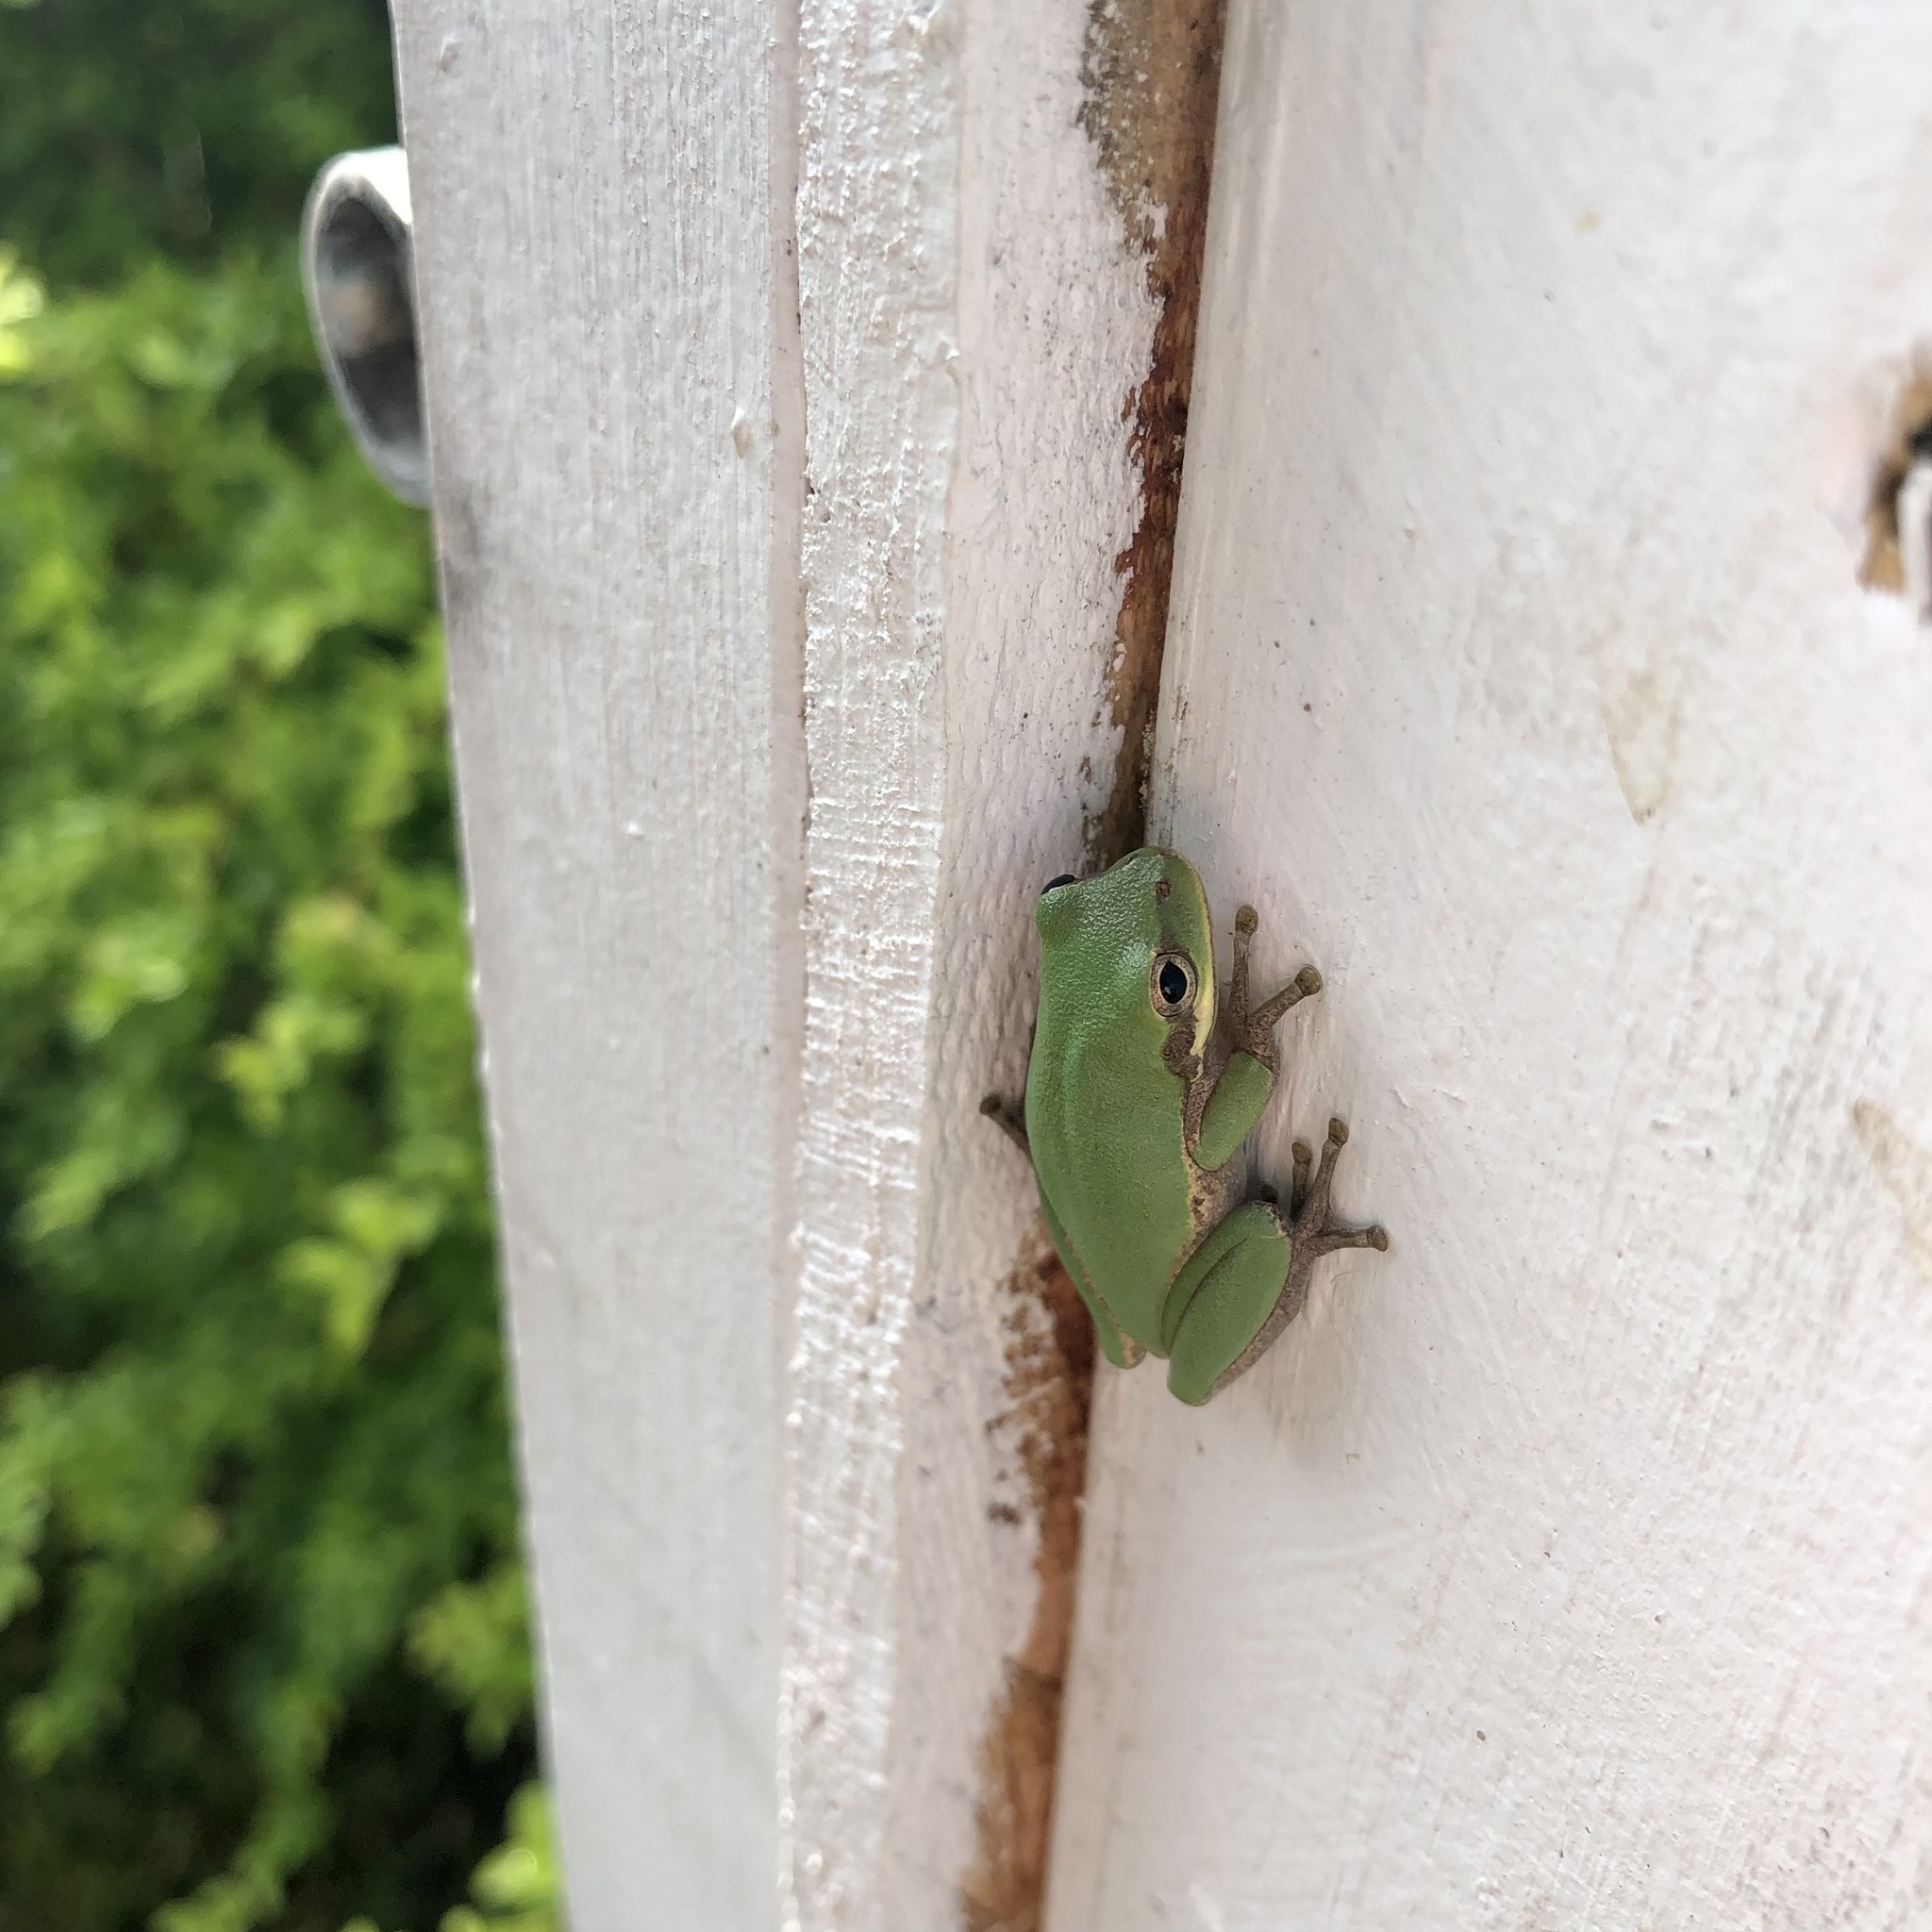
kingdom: Animalia
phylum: Chordata
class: Amphibia
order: Anura
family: Hylidae
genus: Dryophytes
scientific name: Dryophytes squirellus
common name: Squirrel treefrog
